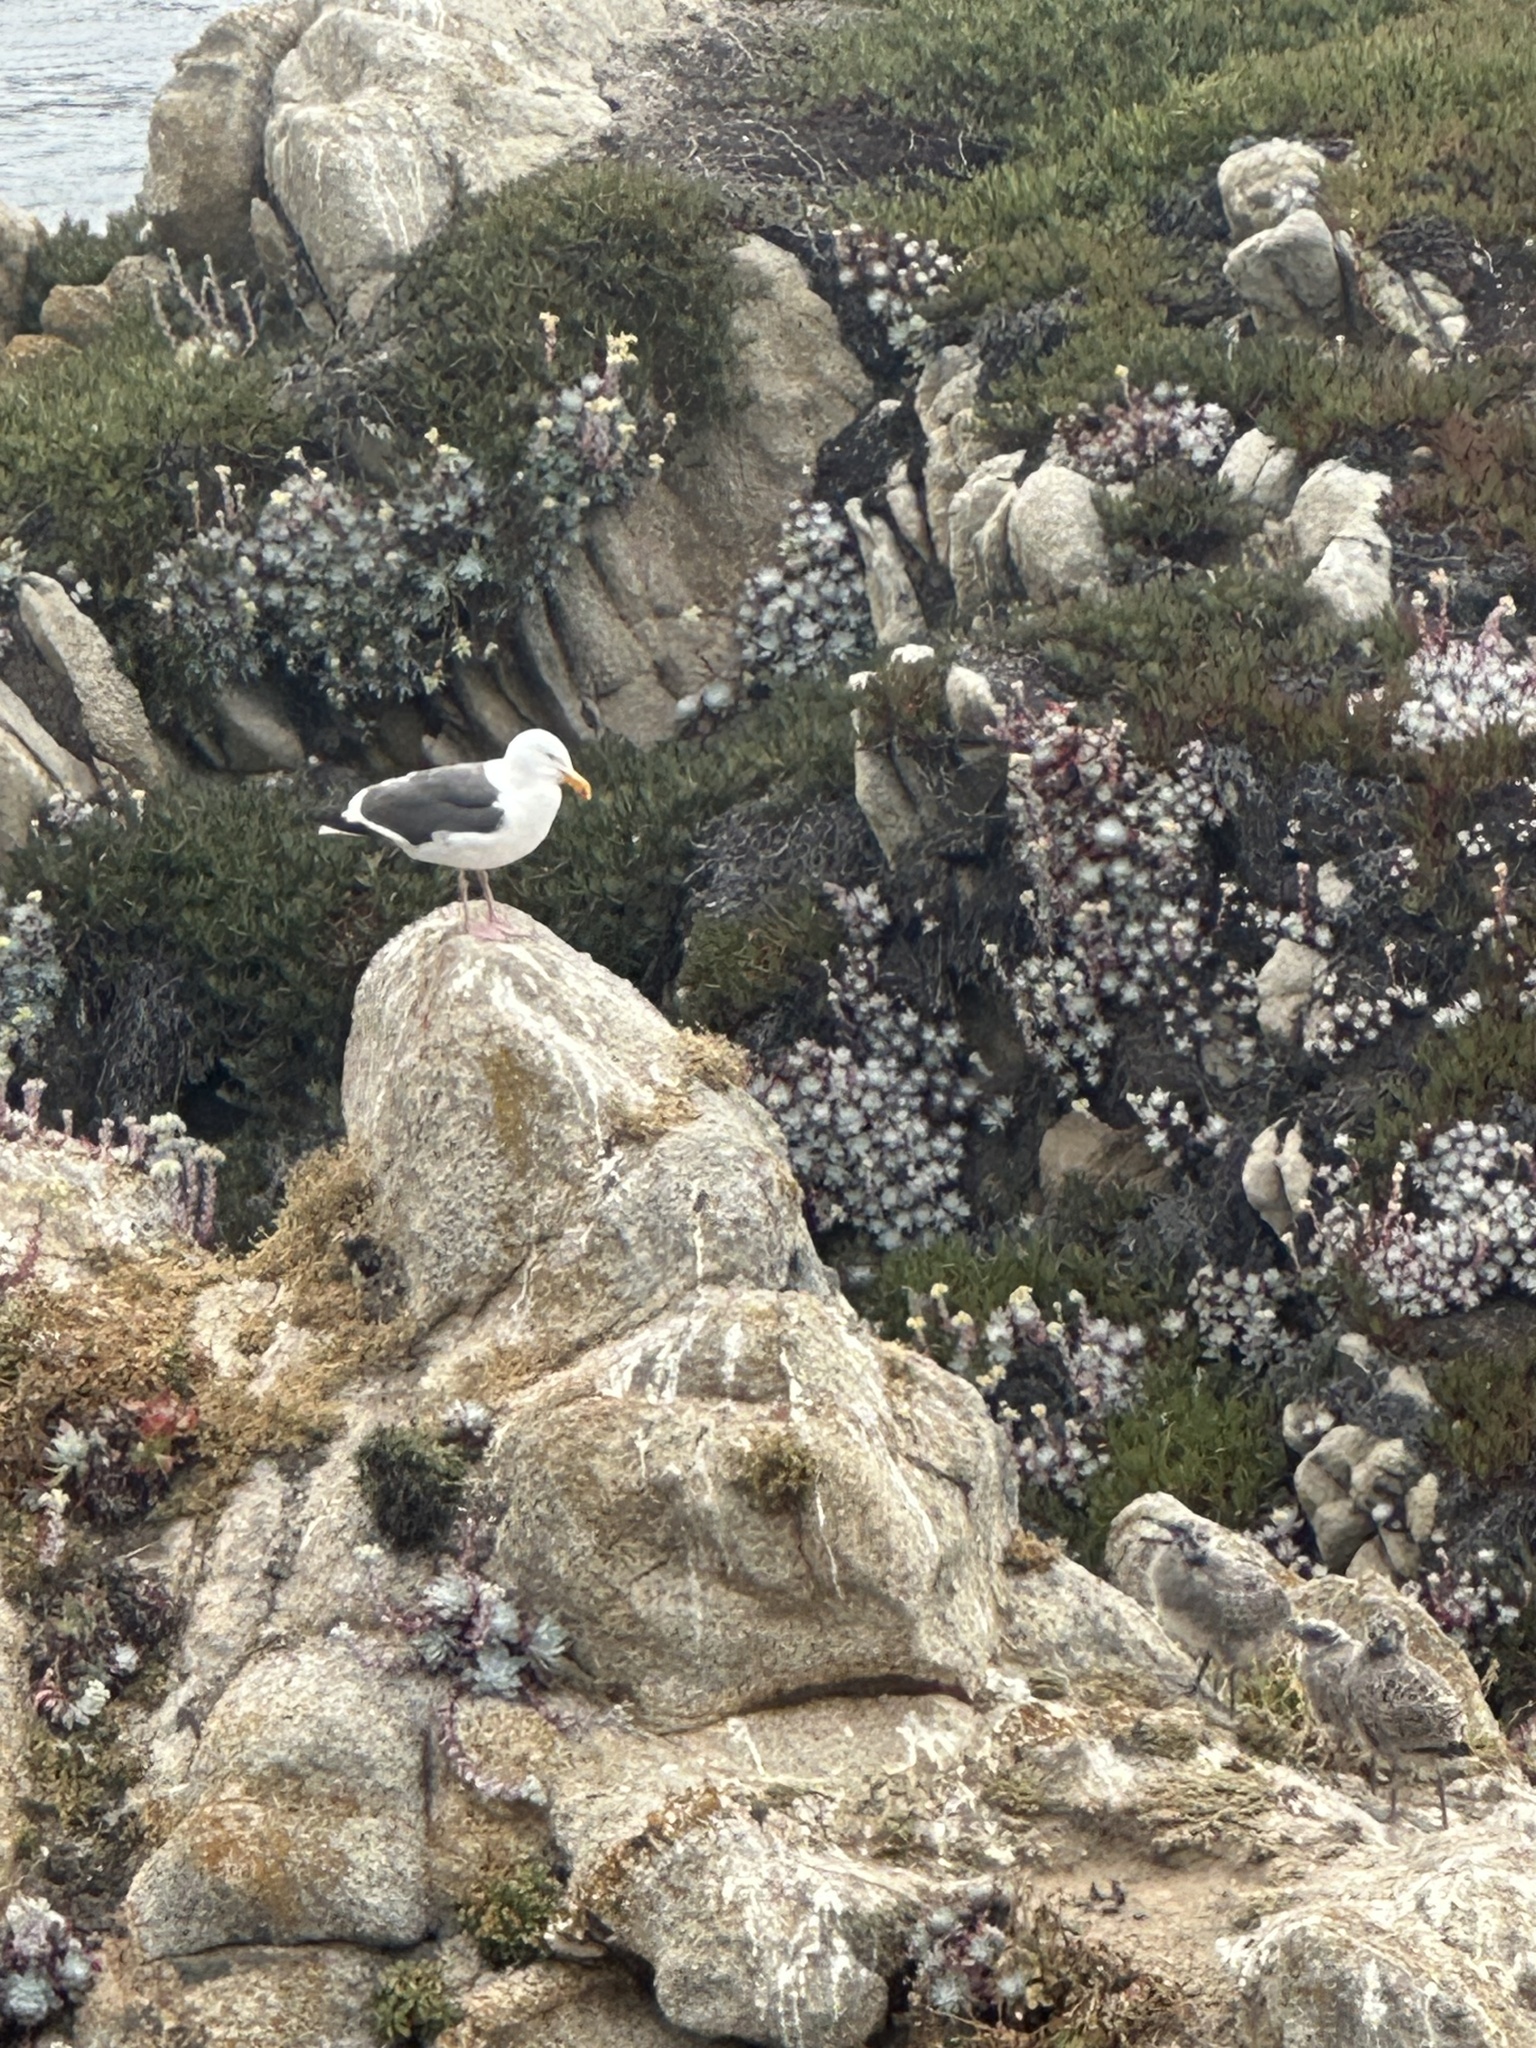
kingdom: Animalia
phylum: Chordata
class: Aves
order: Charadriiformes
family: Laridae
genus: Larus
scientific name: Larus occidentalis
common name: Western gull
